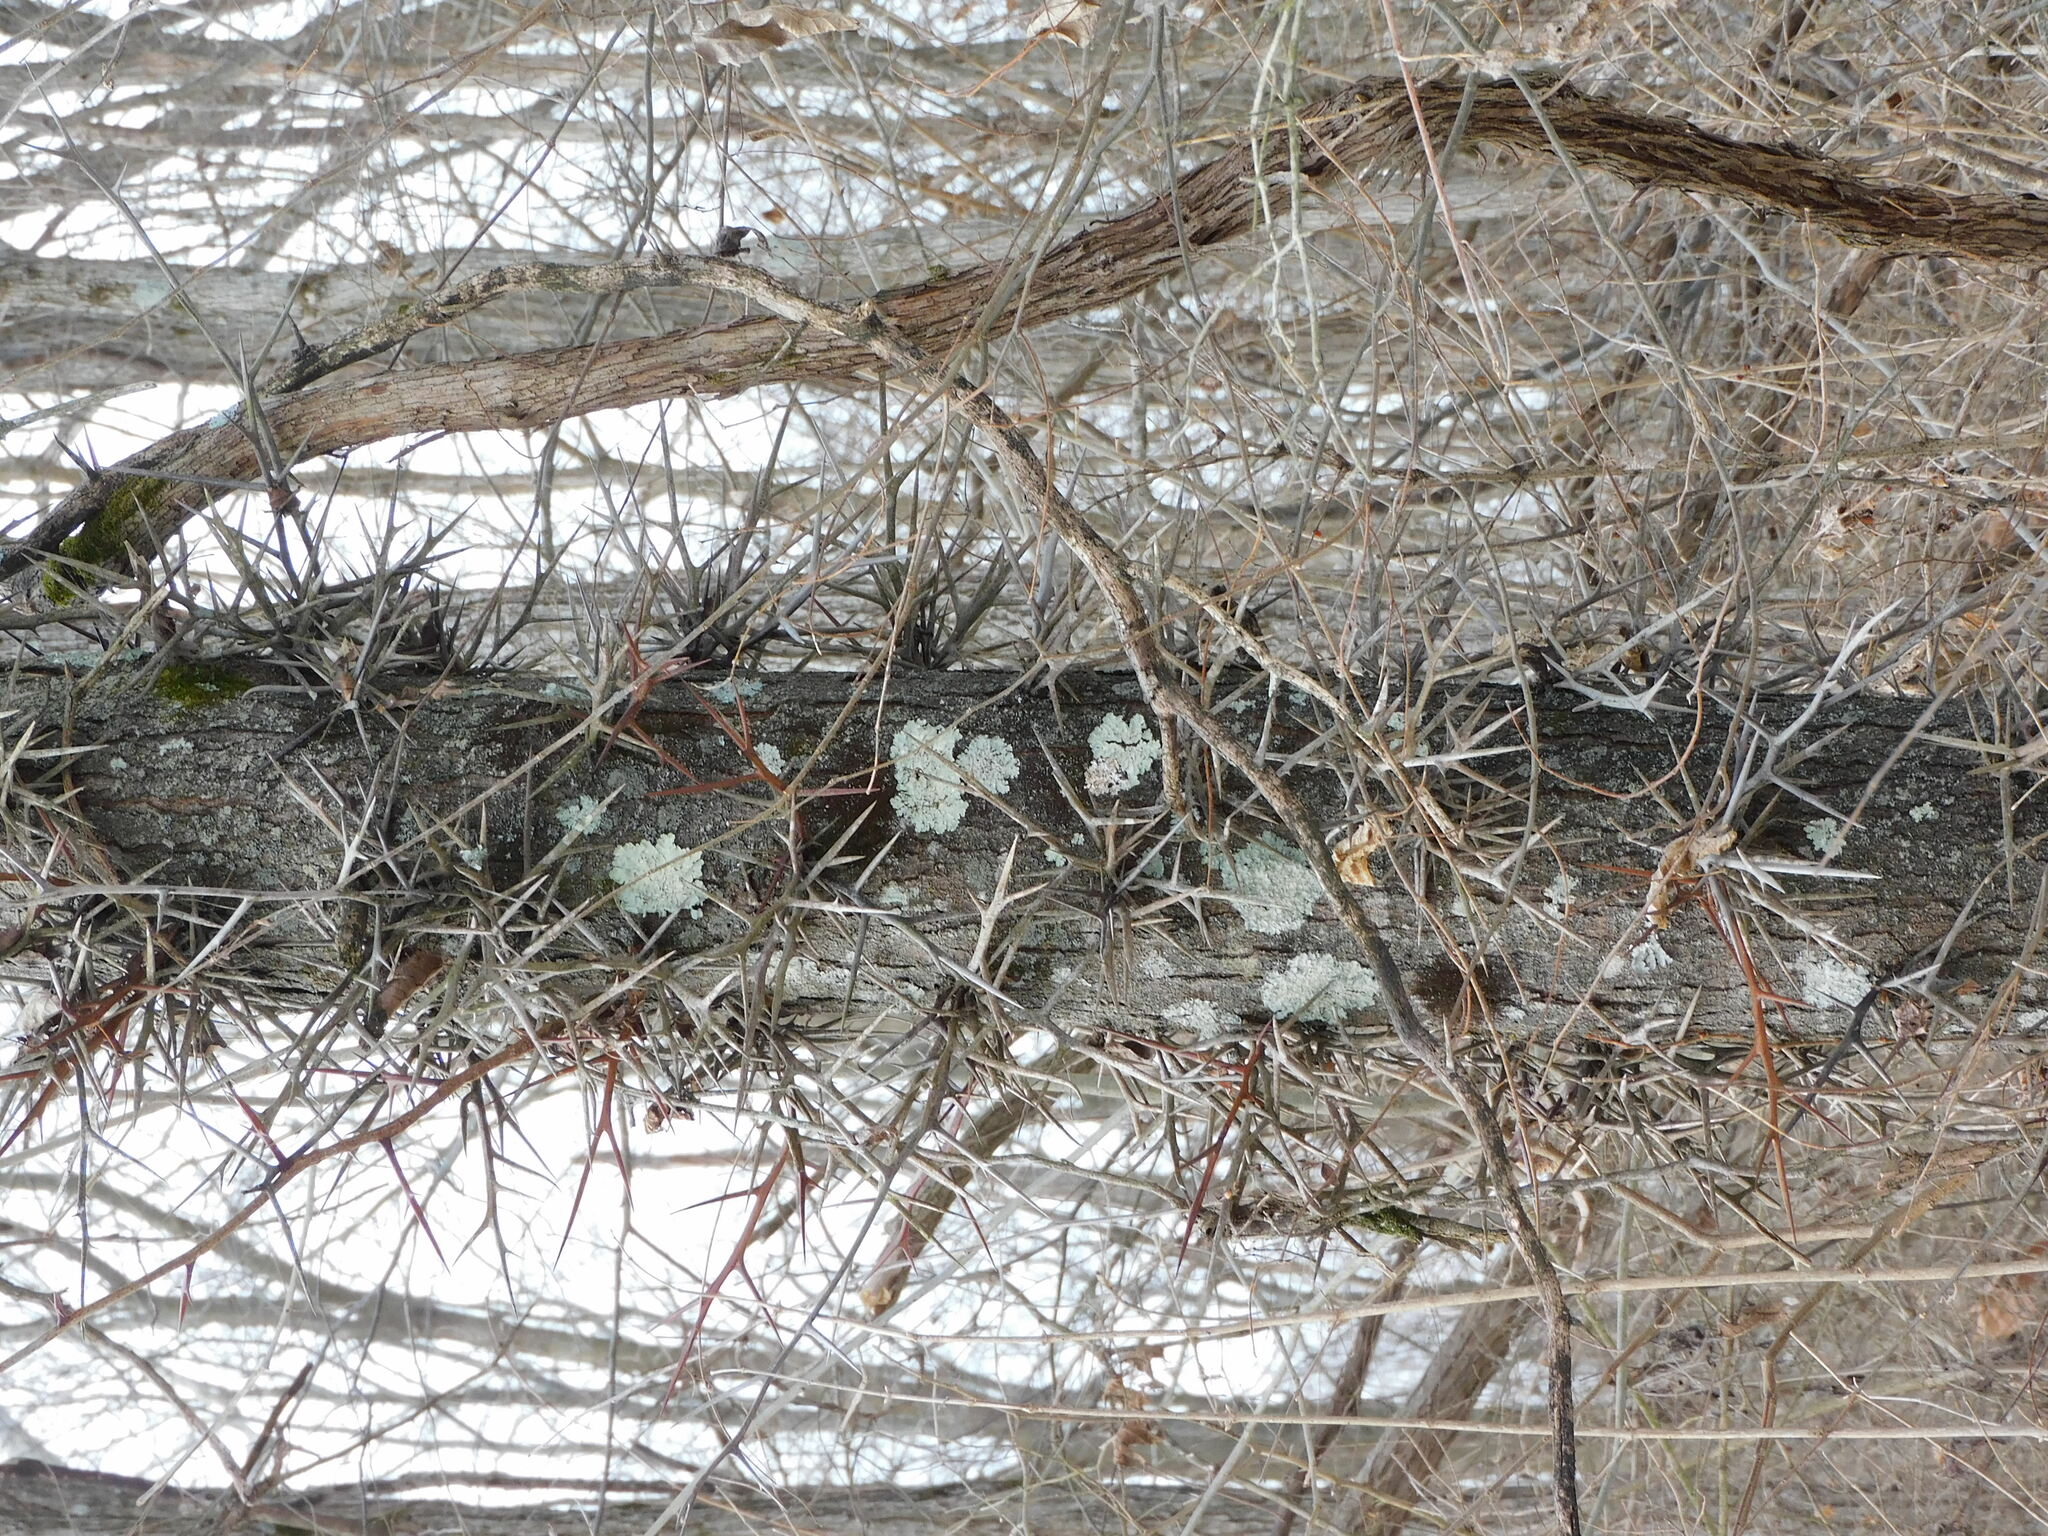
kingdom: Plantae
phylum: Tracheophyta
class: Magnoliopsida
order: Fabales
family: Fabaceae
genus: Gleditsia
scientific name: Gleditsia triacanthos
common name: Common honeylocust
